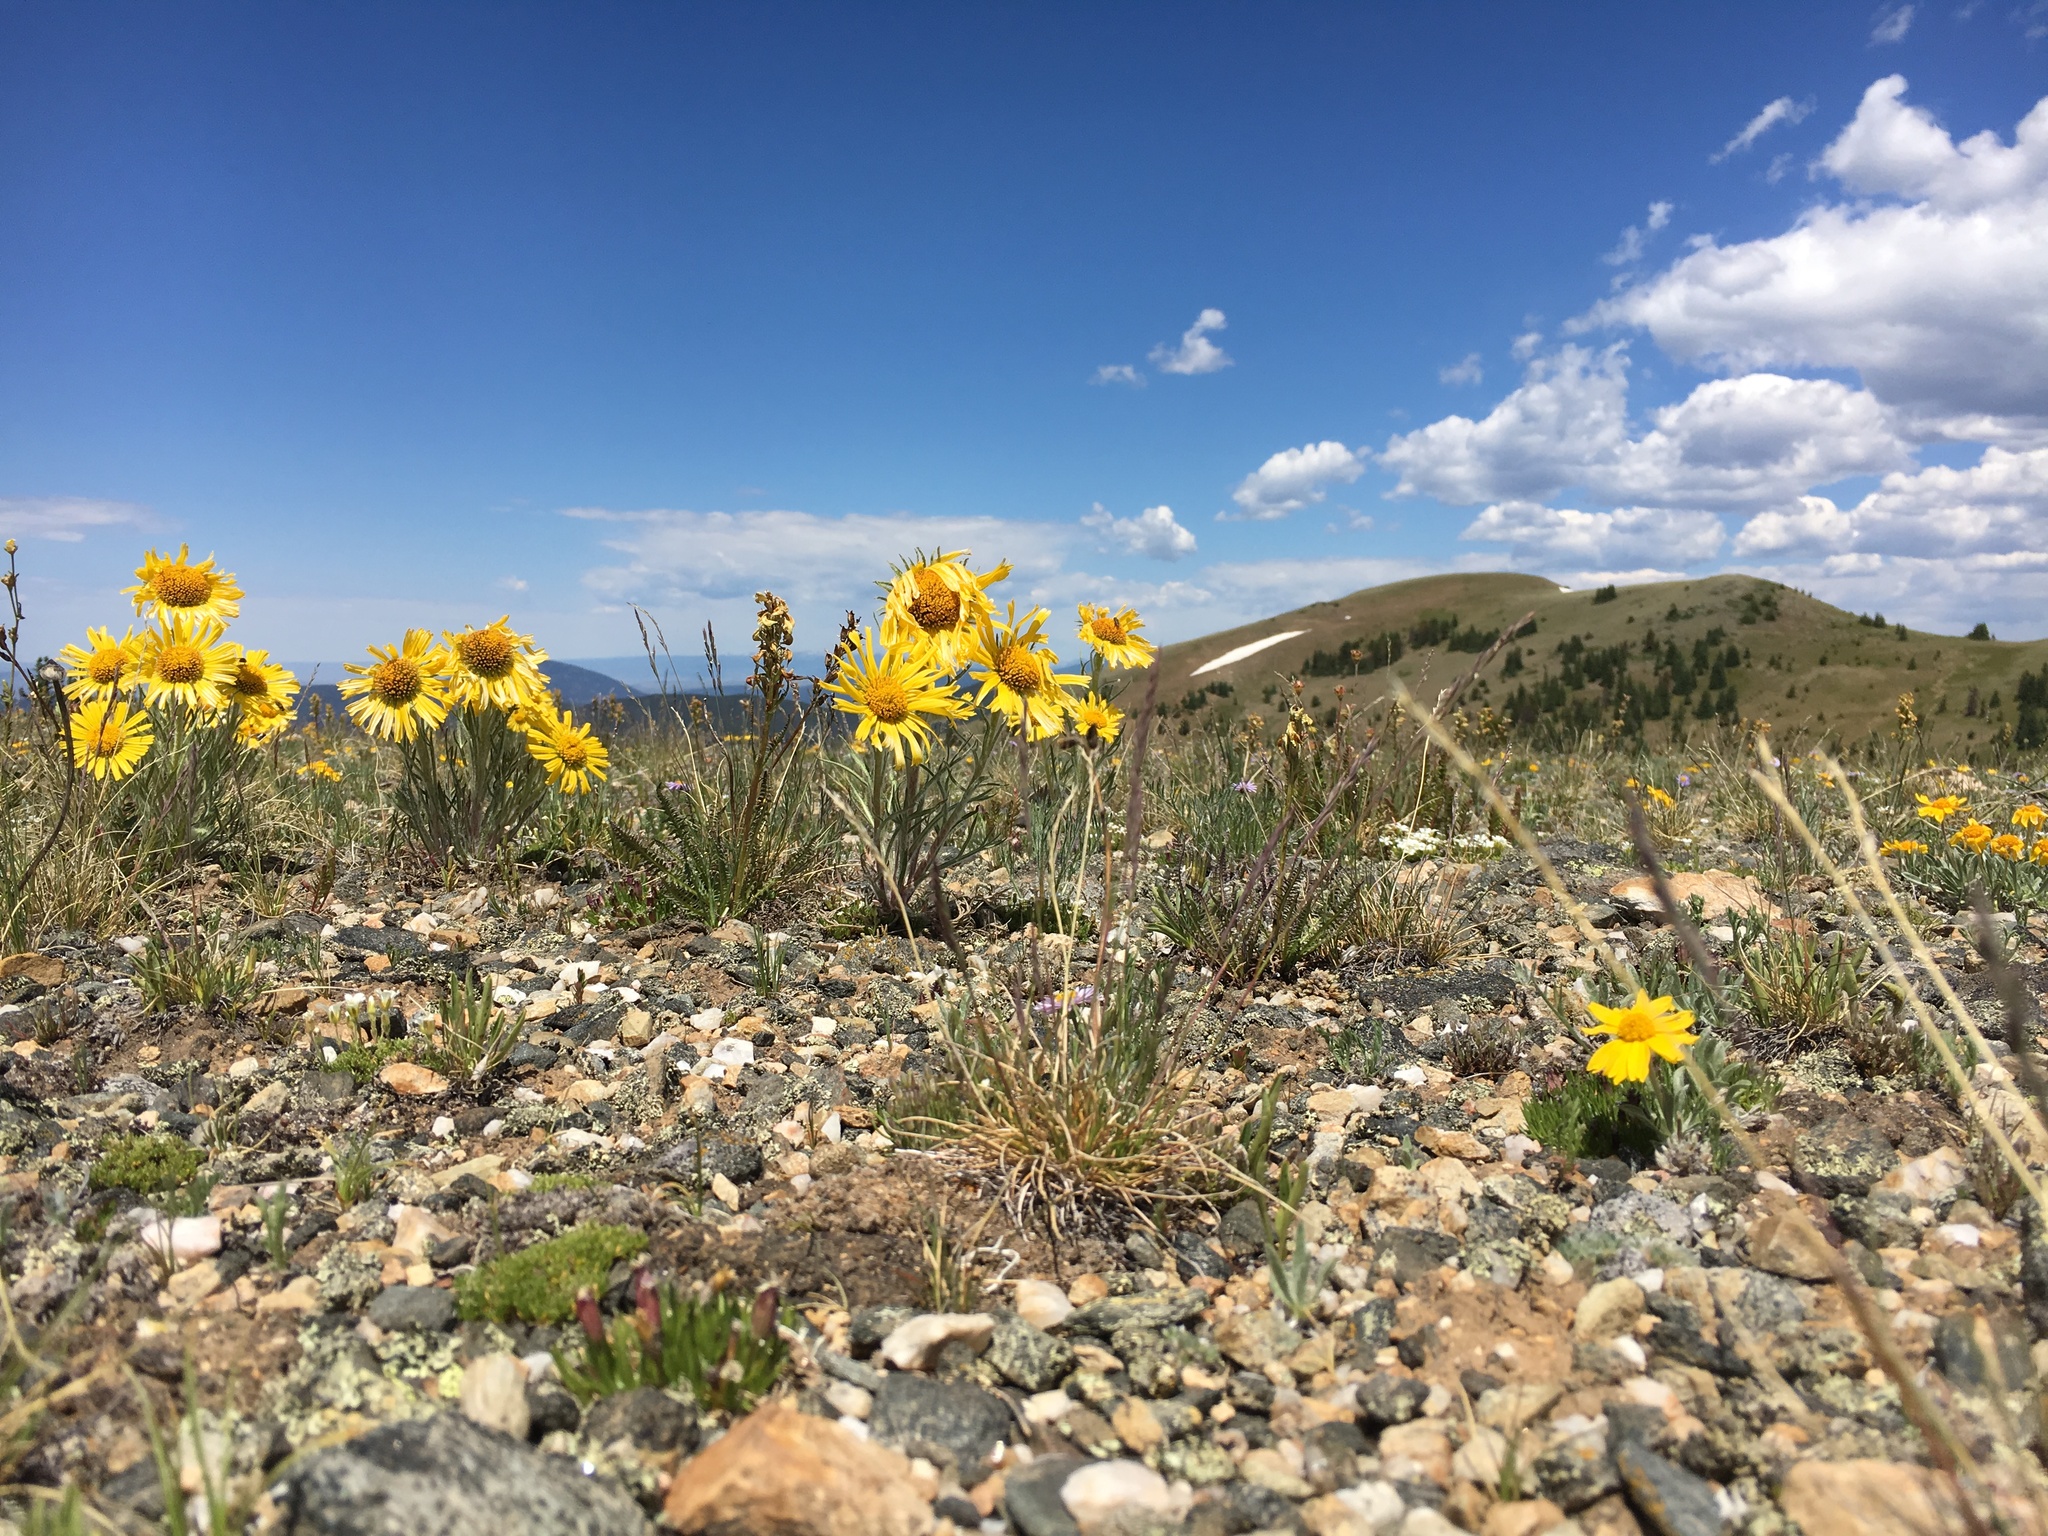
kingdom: Plantae
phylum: Tracheophyta
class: Magnoliopsida
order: Asterales
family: Asteraceae
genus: Hymenoxys
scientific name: Hymenoxys grandiflora
